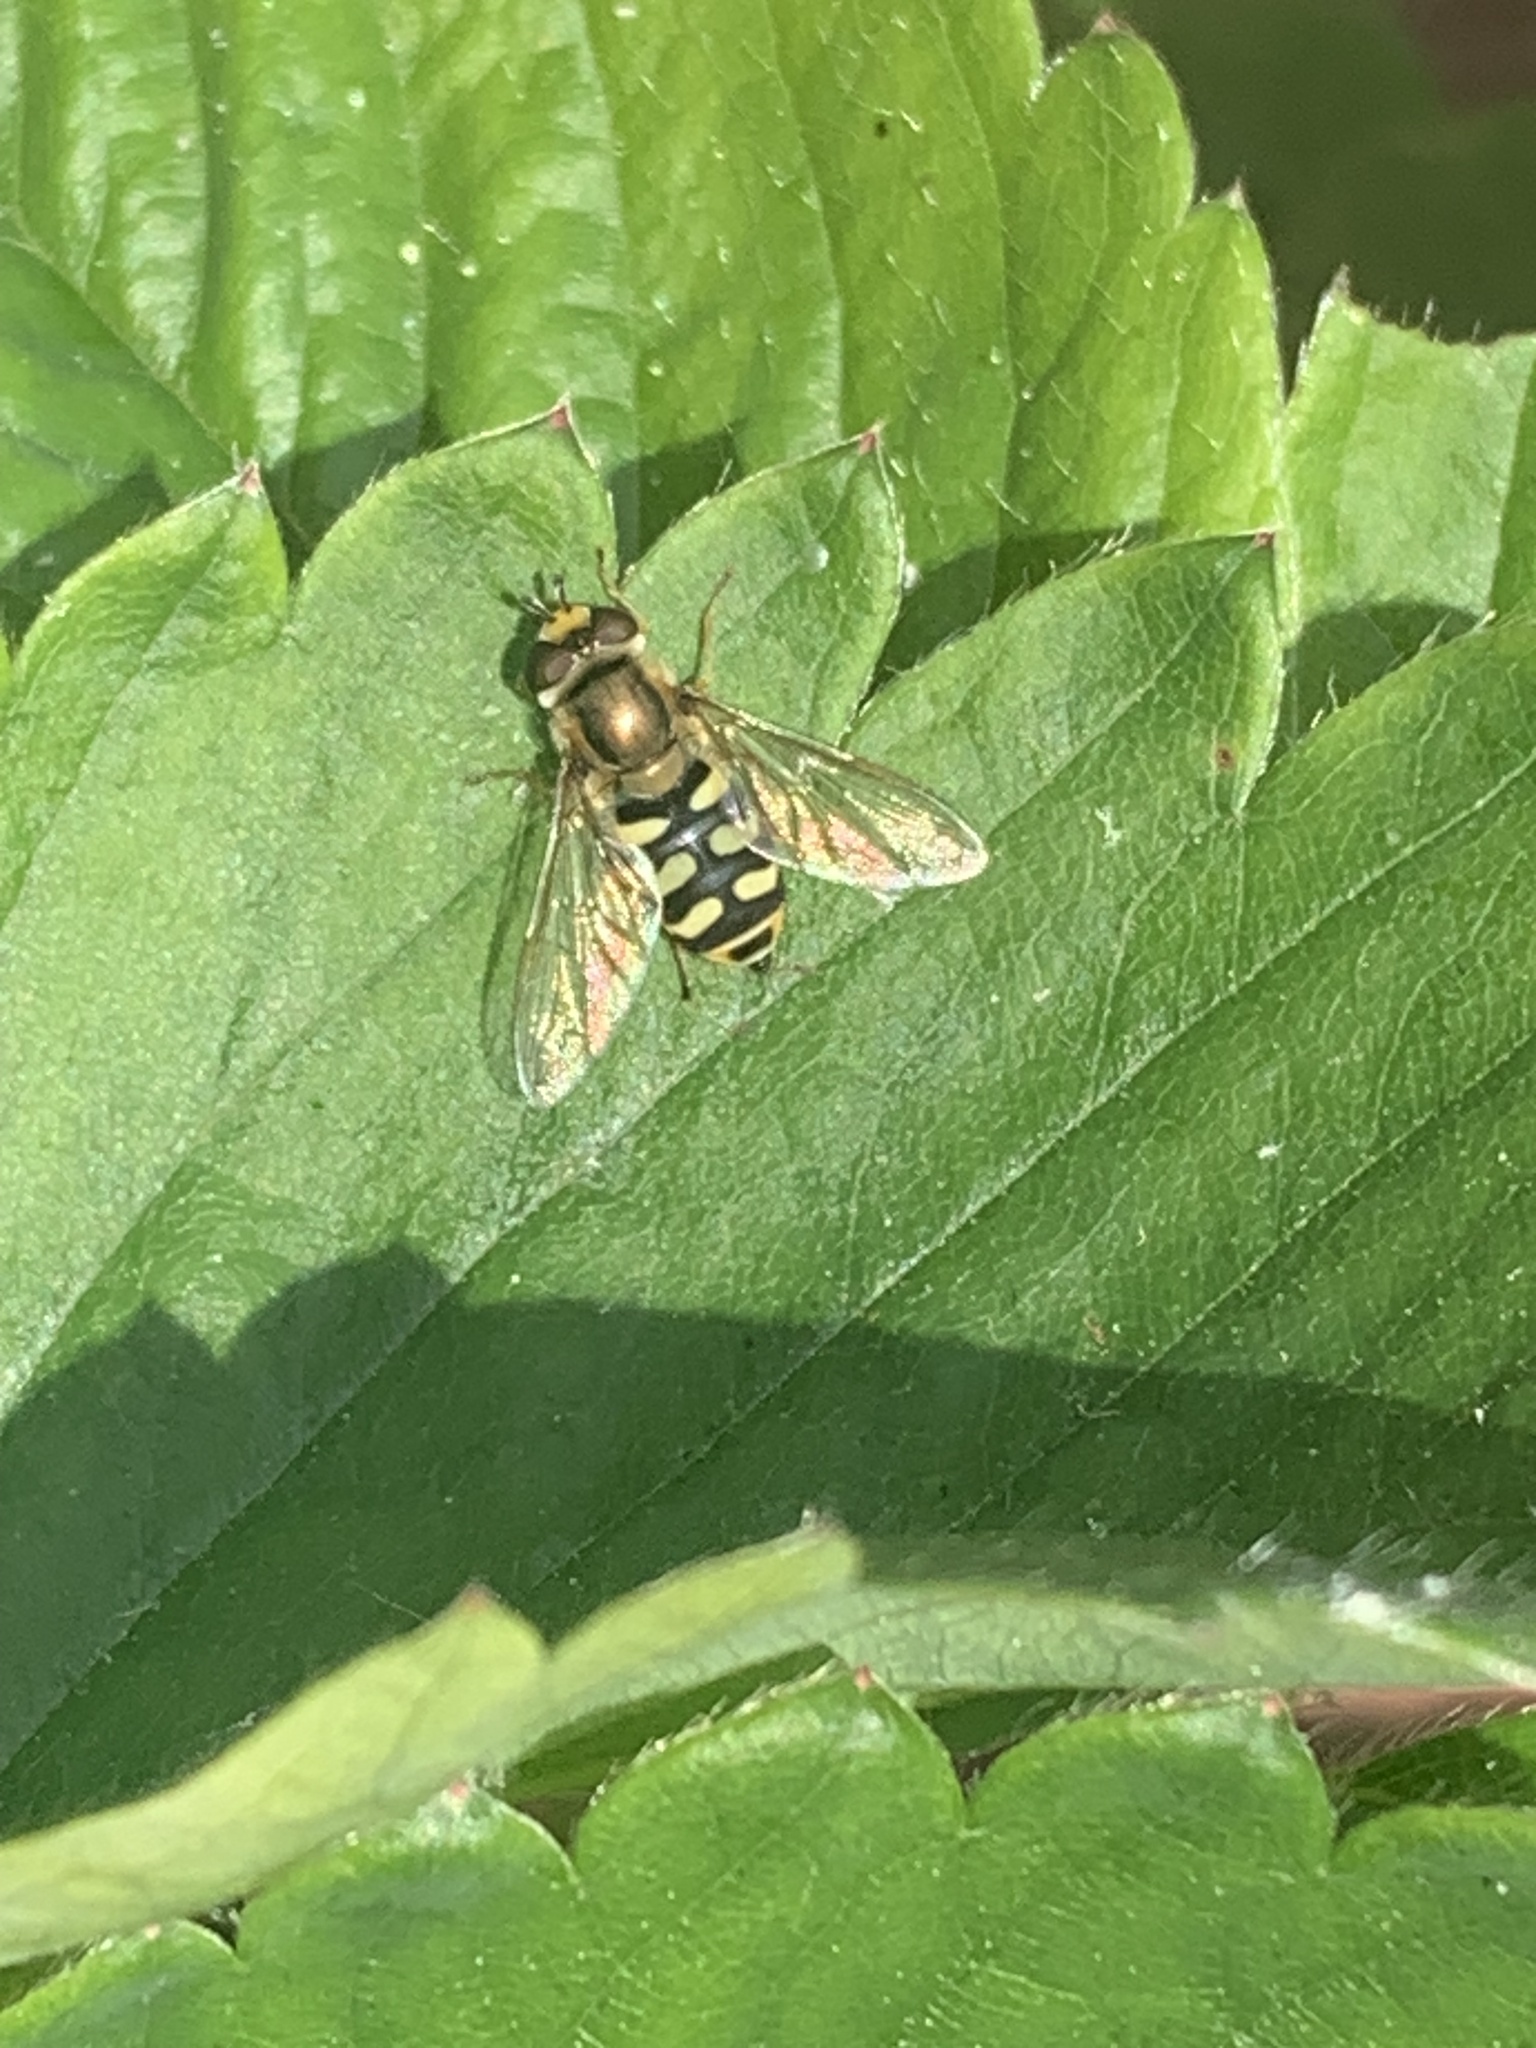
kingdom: Animalia
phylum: Arthropoda
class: Insecta
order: Diptera
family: Syrphidae
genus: Eupeodes
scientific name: Eupeodes corollae
